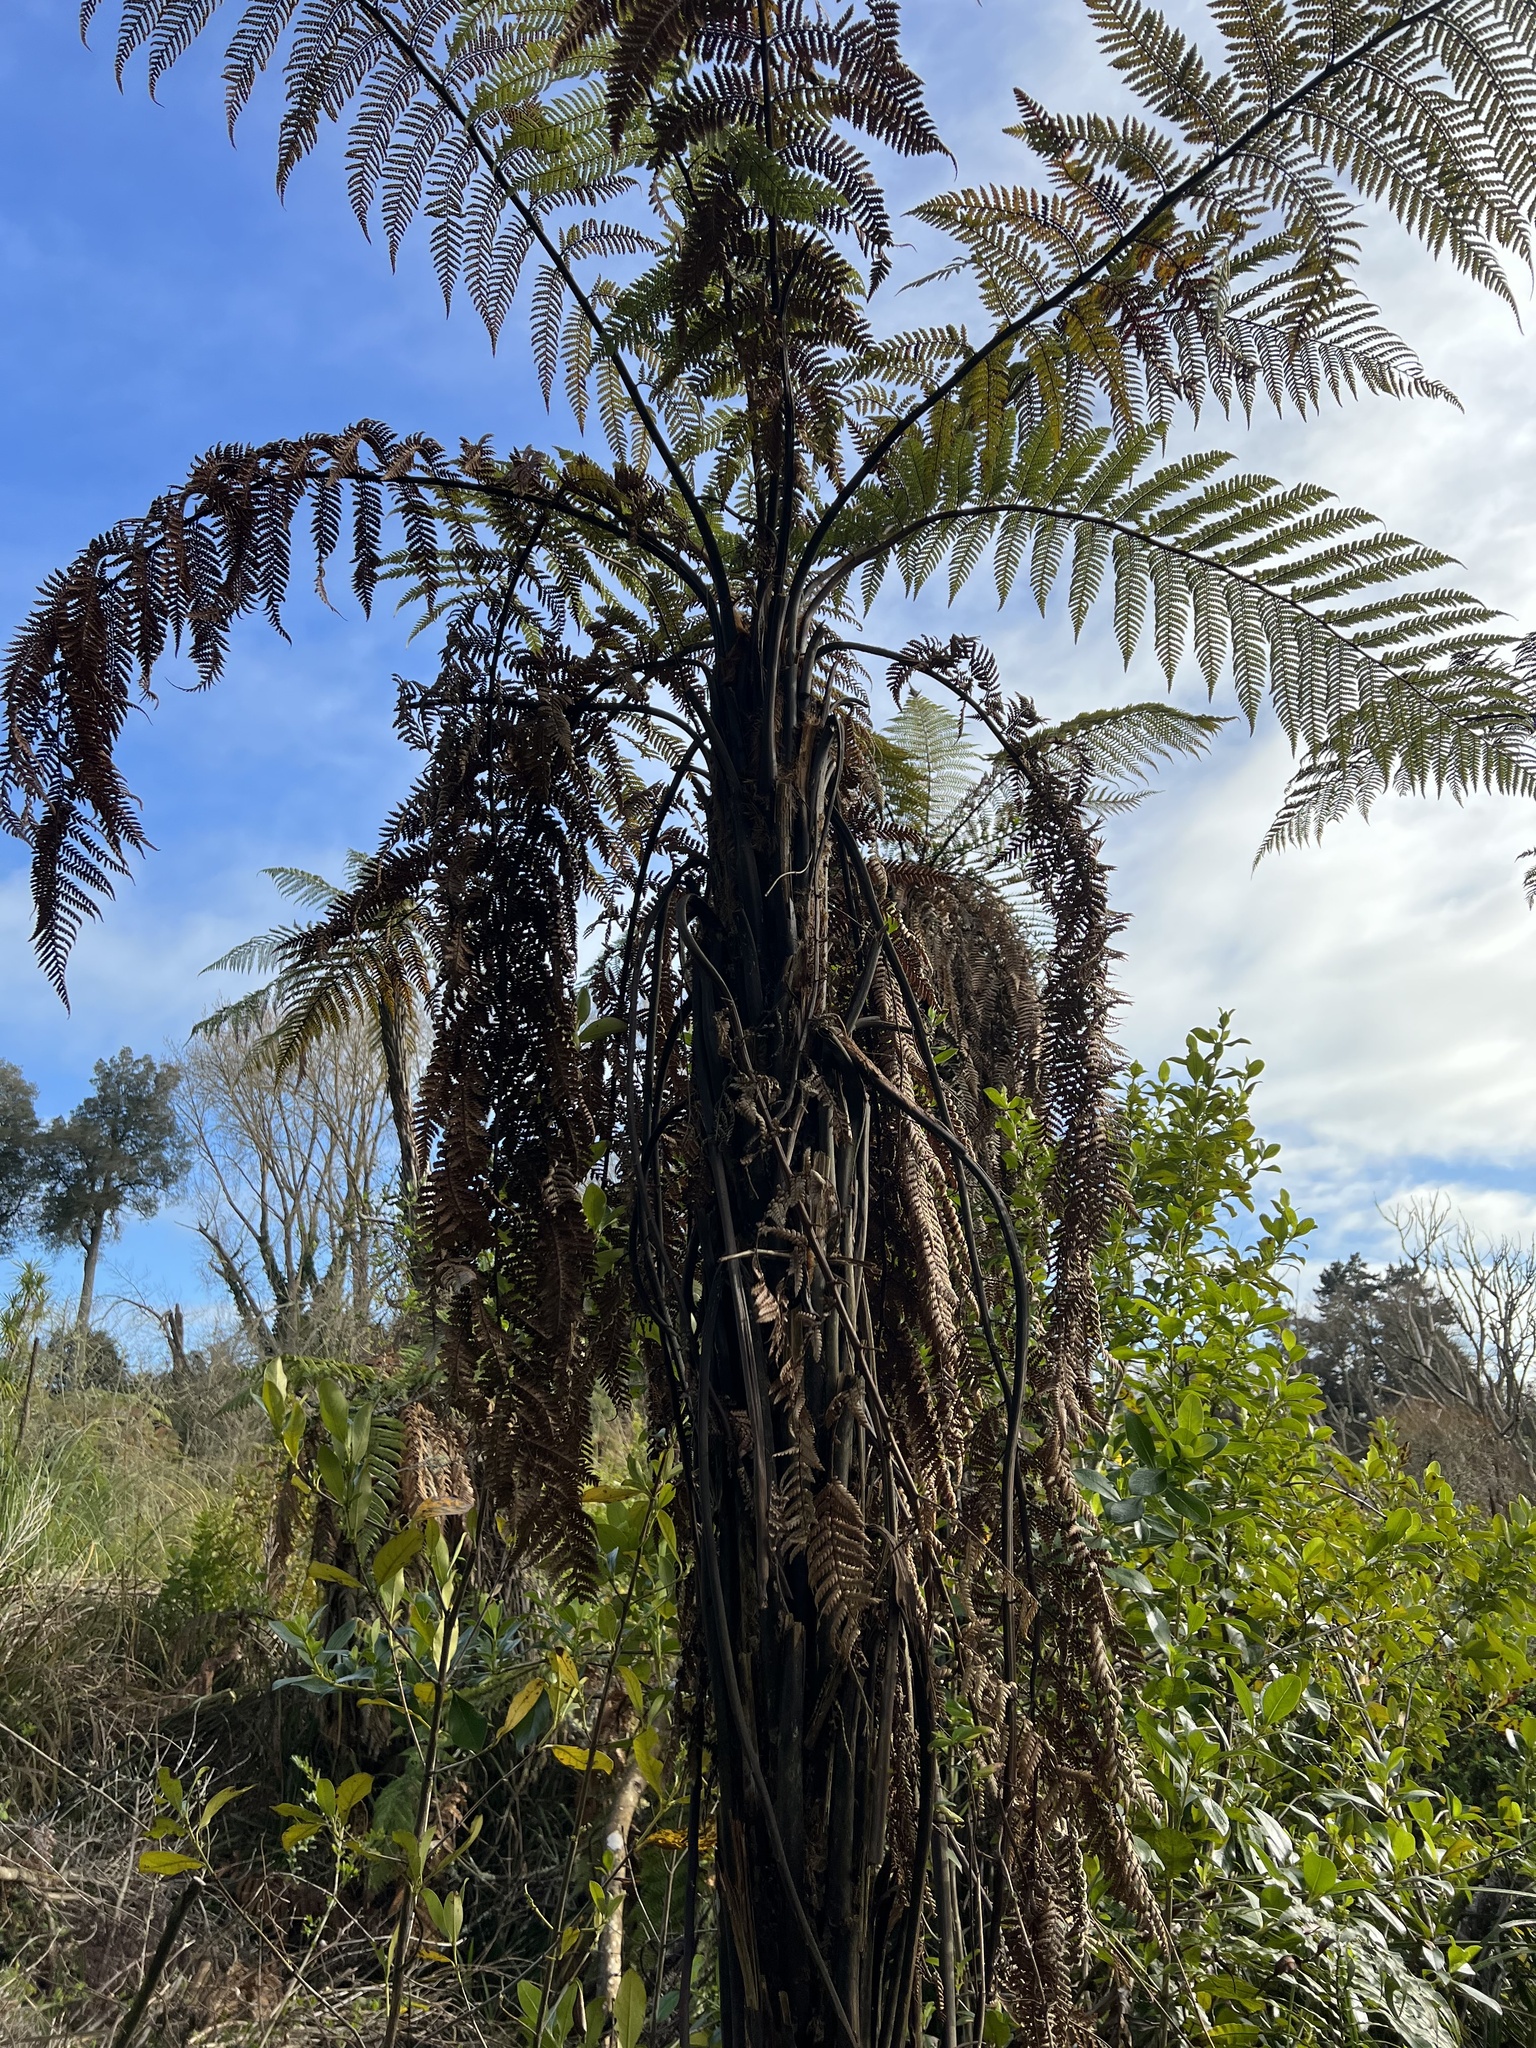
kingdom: Plantae
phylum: Tracheophyta
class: Polypodiopsida
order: Cyatheales
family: Dicksoniaceae
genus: Dicksonia
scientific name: Dicksonia squarrosa
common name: Hard treefern
